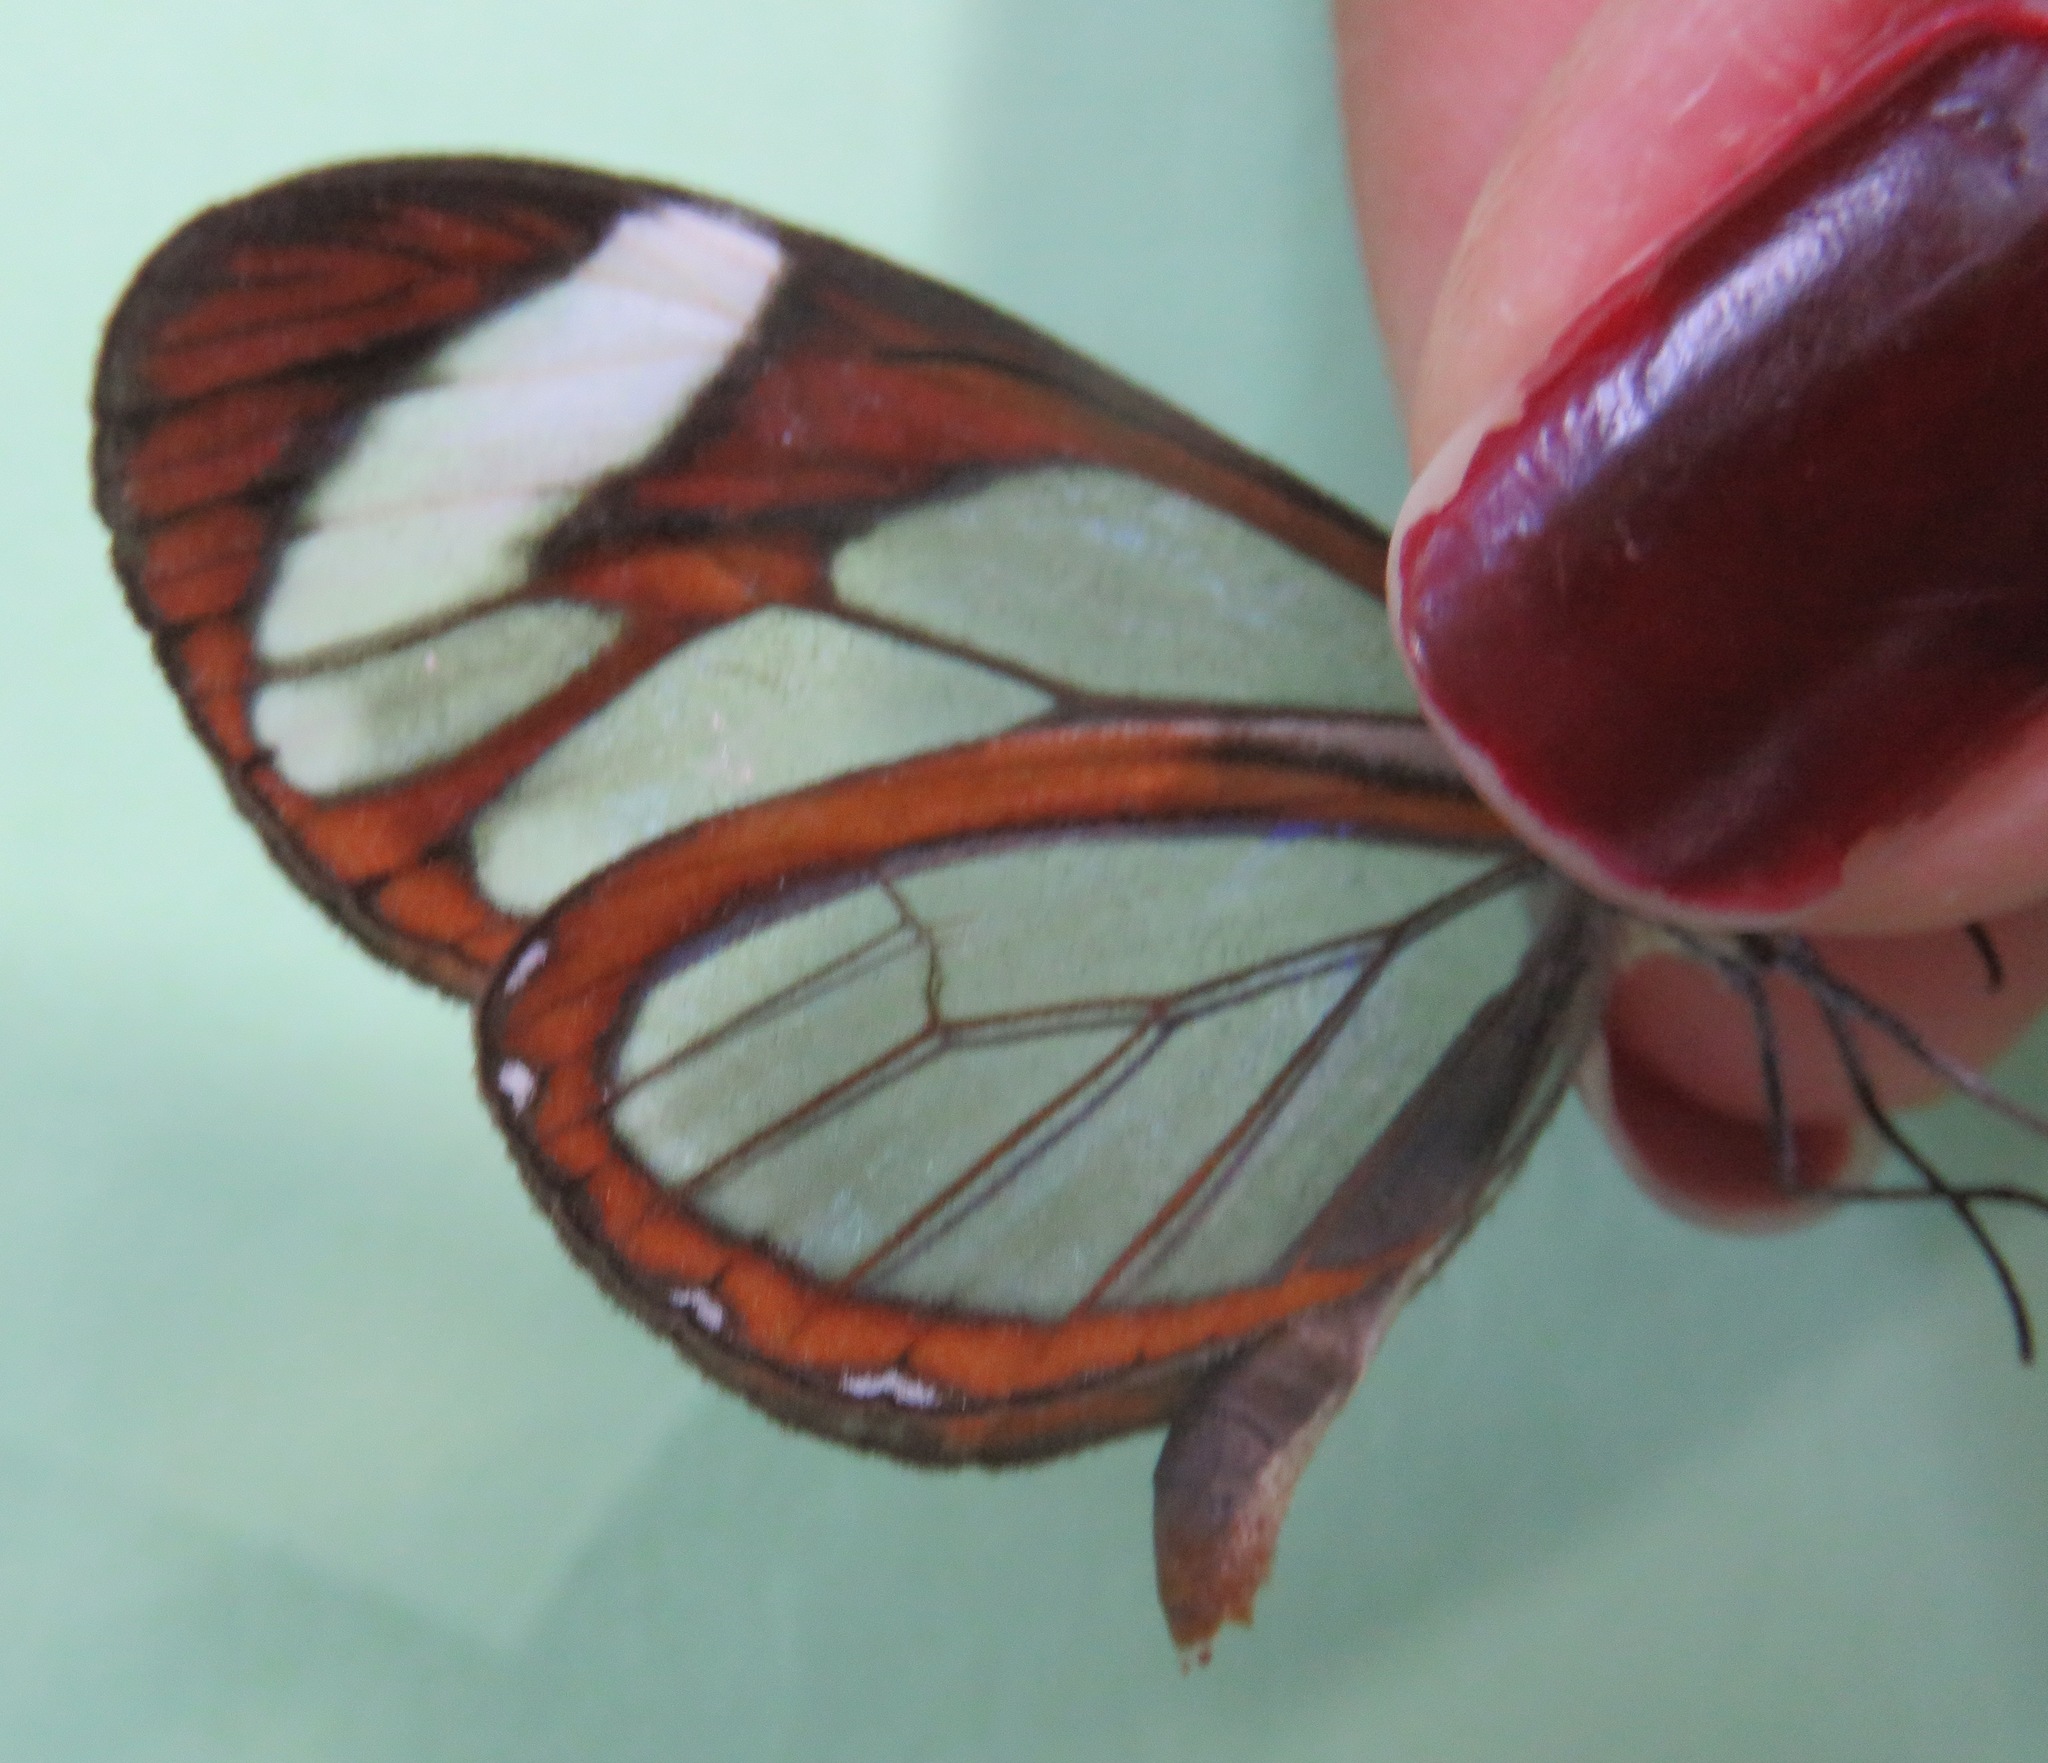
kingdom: Animalia
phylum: Arthropoda
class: Insecta
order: Lepidoptera
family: Nymphalidae
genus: Ithomia
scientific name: Ithomia patilla
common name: Patilla clearwing
